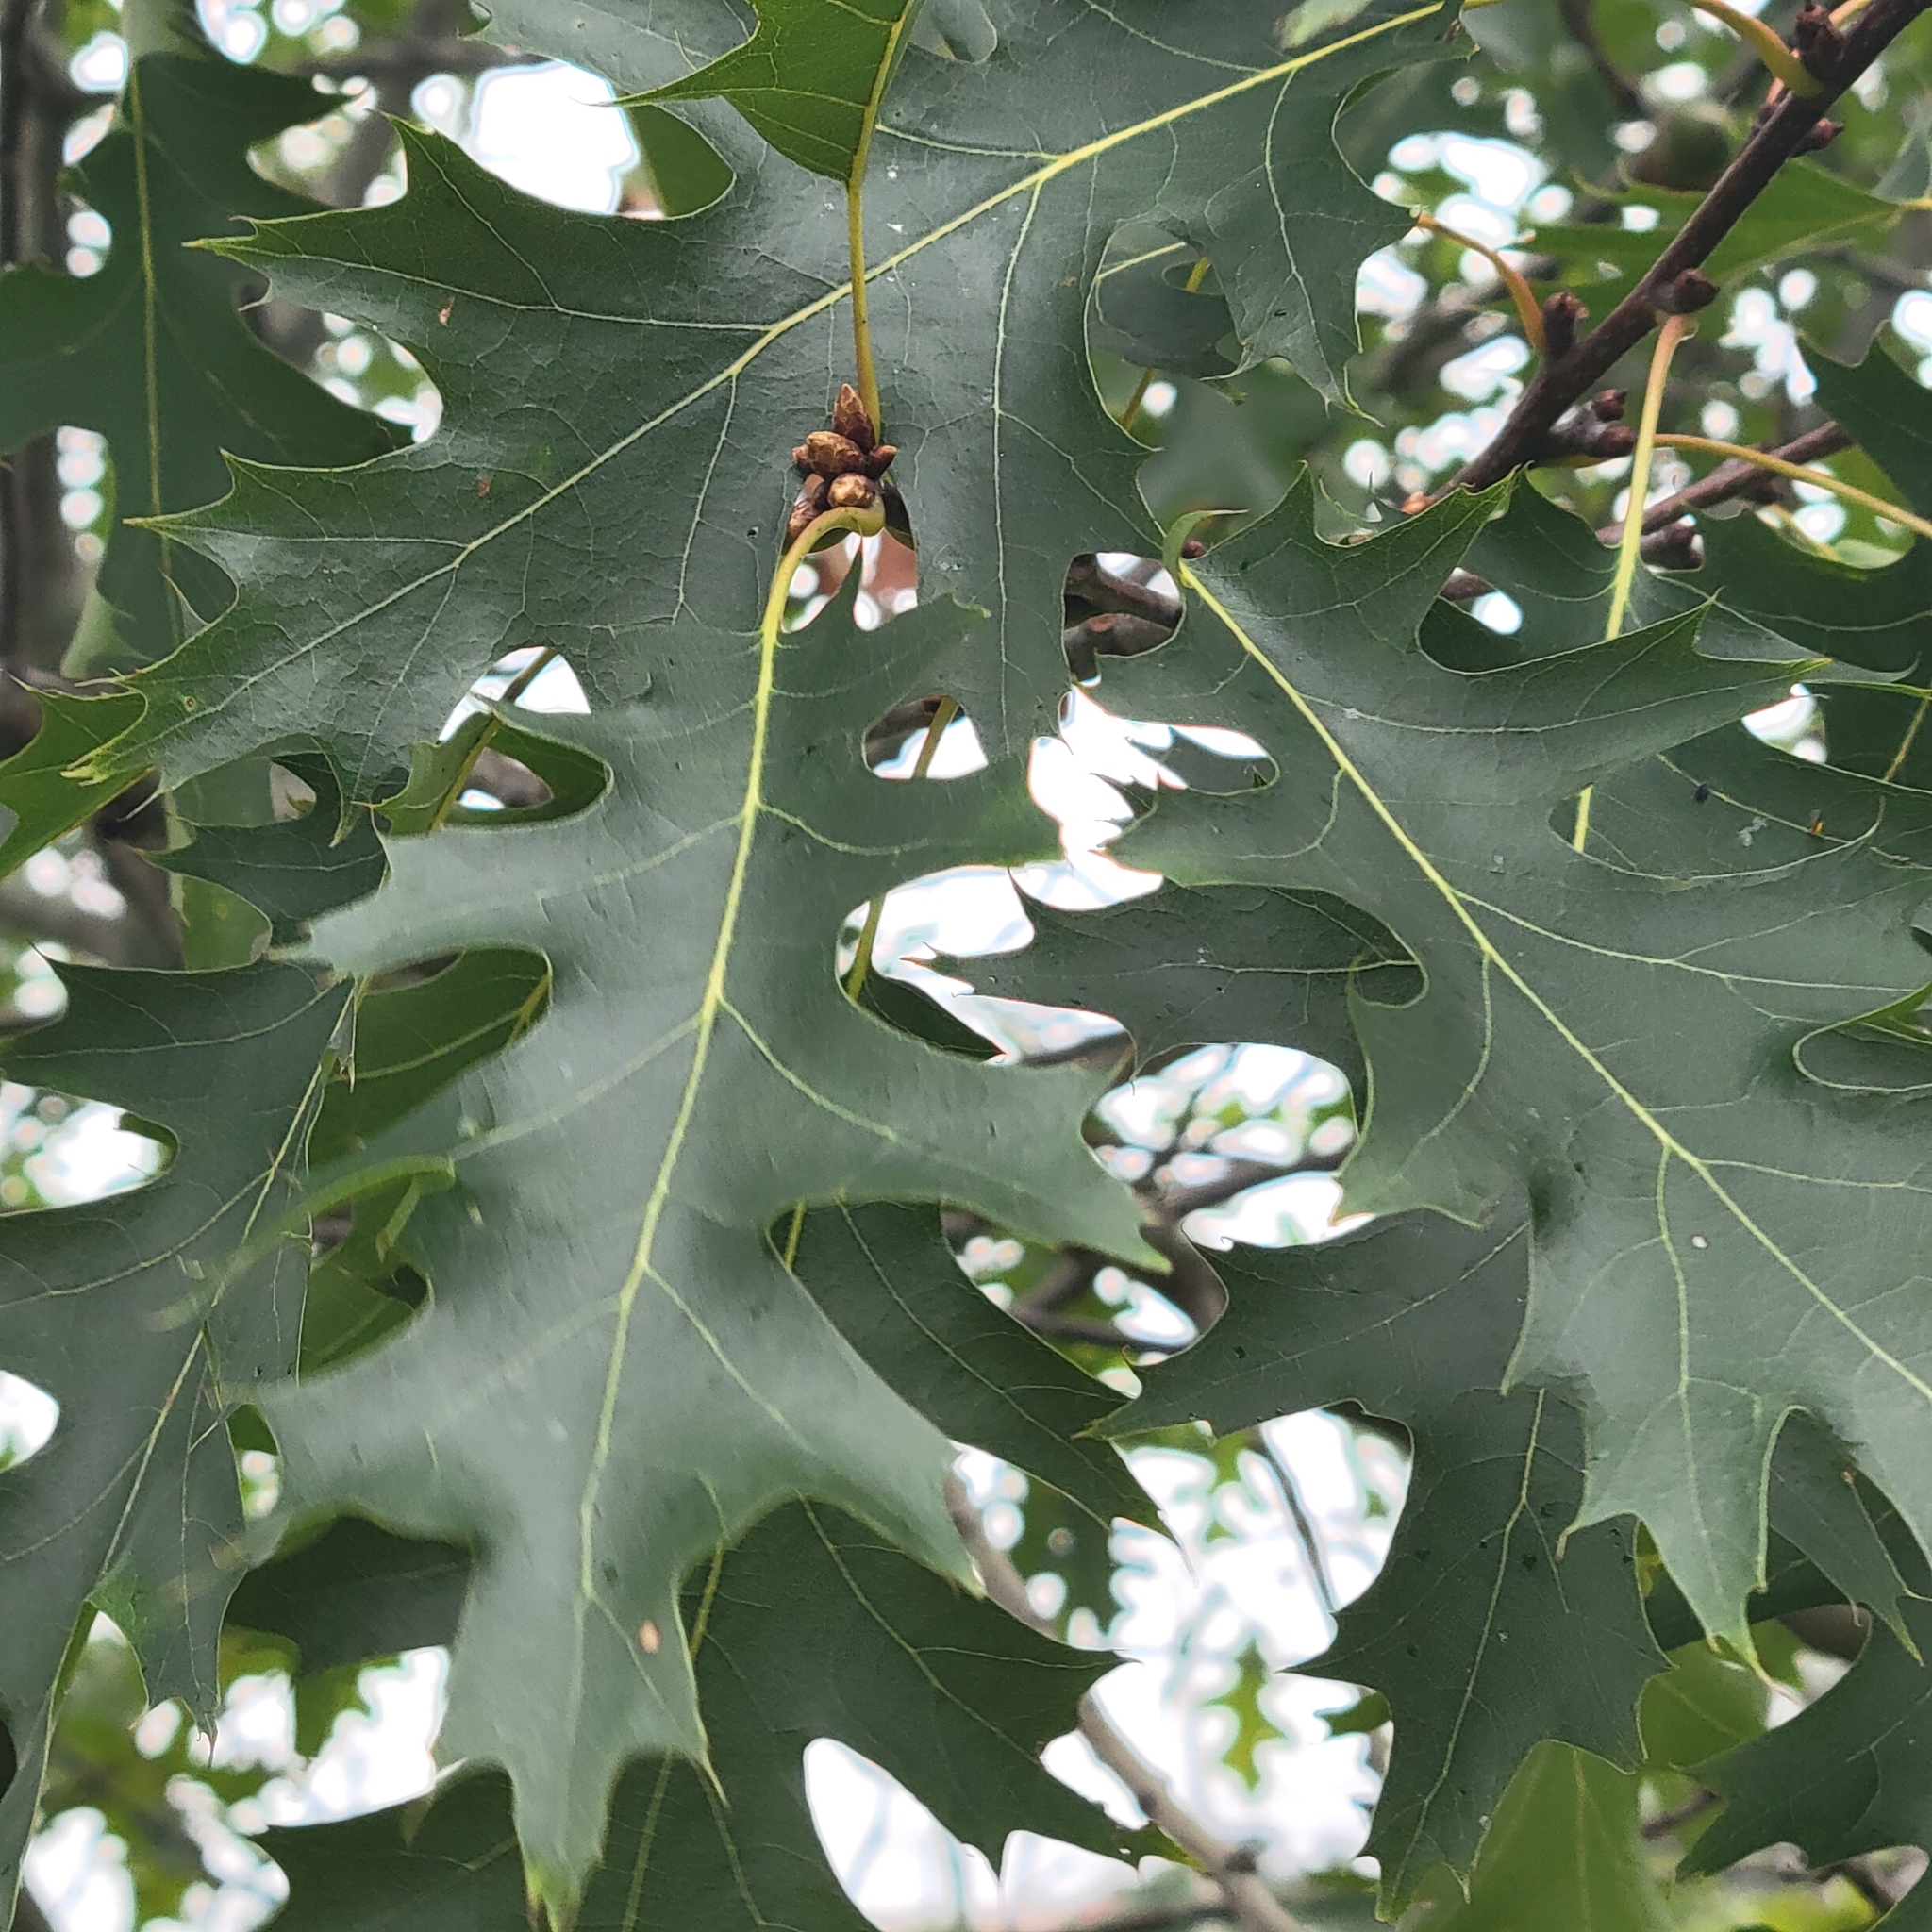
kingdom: Plantae
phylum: Tracheophyta
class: Magnoliopsida
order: Fagales
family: Fagaceae
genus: Quercus
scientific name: Quercus rubra
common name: Red oak
